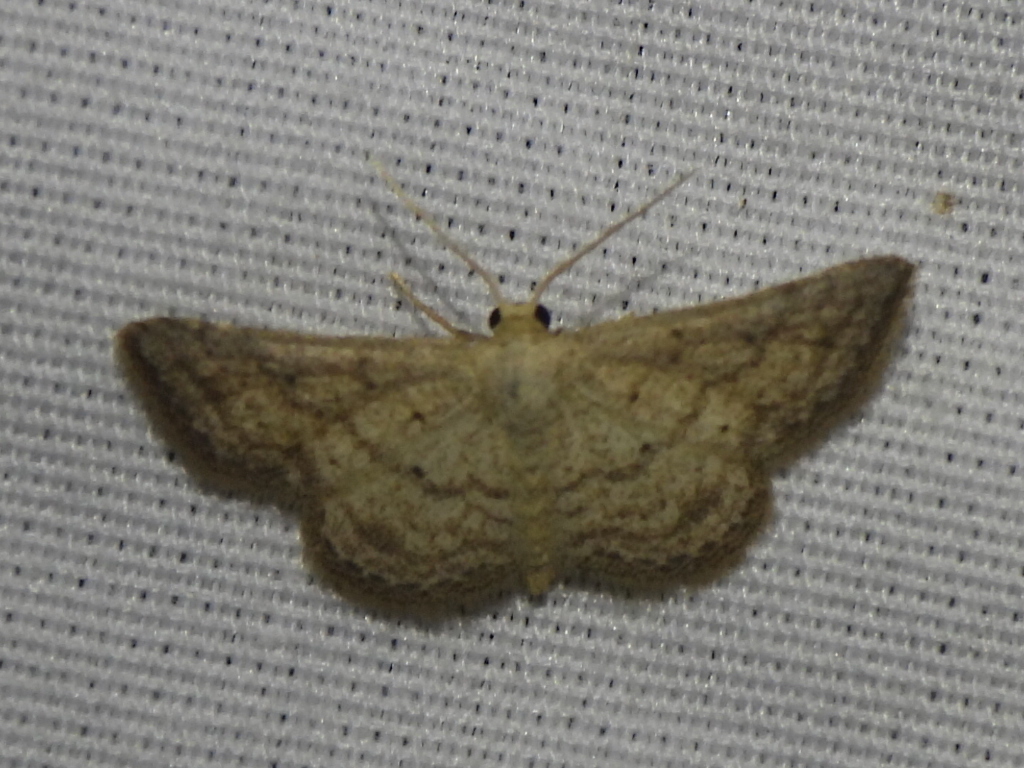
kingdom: Animalia
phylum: Arthropoda
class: Insecta
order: Lepidoptera
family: Geometridae
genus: Lobocleta
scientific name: Lobocleta ossularia
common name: Drab brown wave
